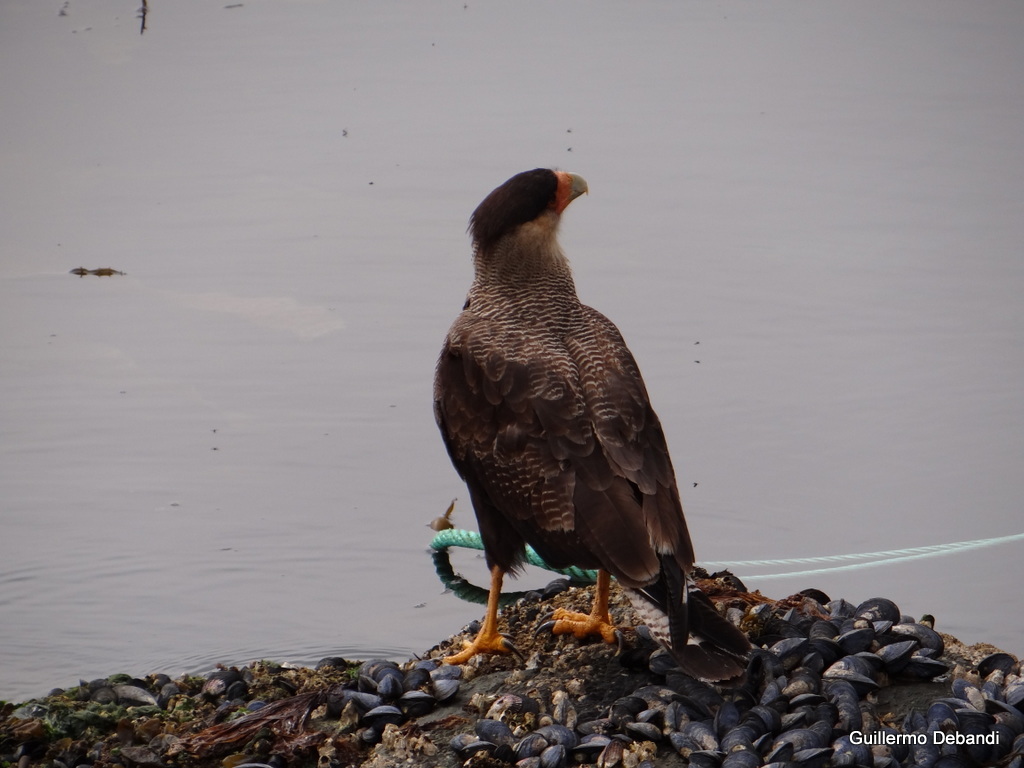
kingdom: Animalia
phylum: Chordata
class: Aves
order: Falconiformes
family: Falconidae
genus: Caracara
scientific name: Caracara plancus
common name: Southern caracara
